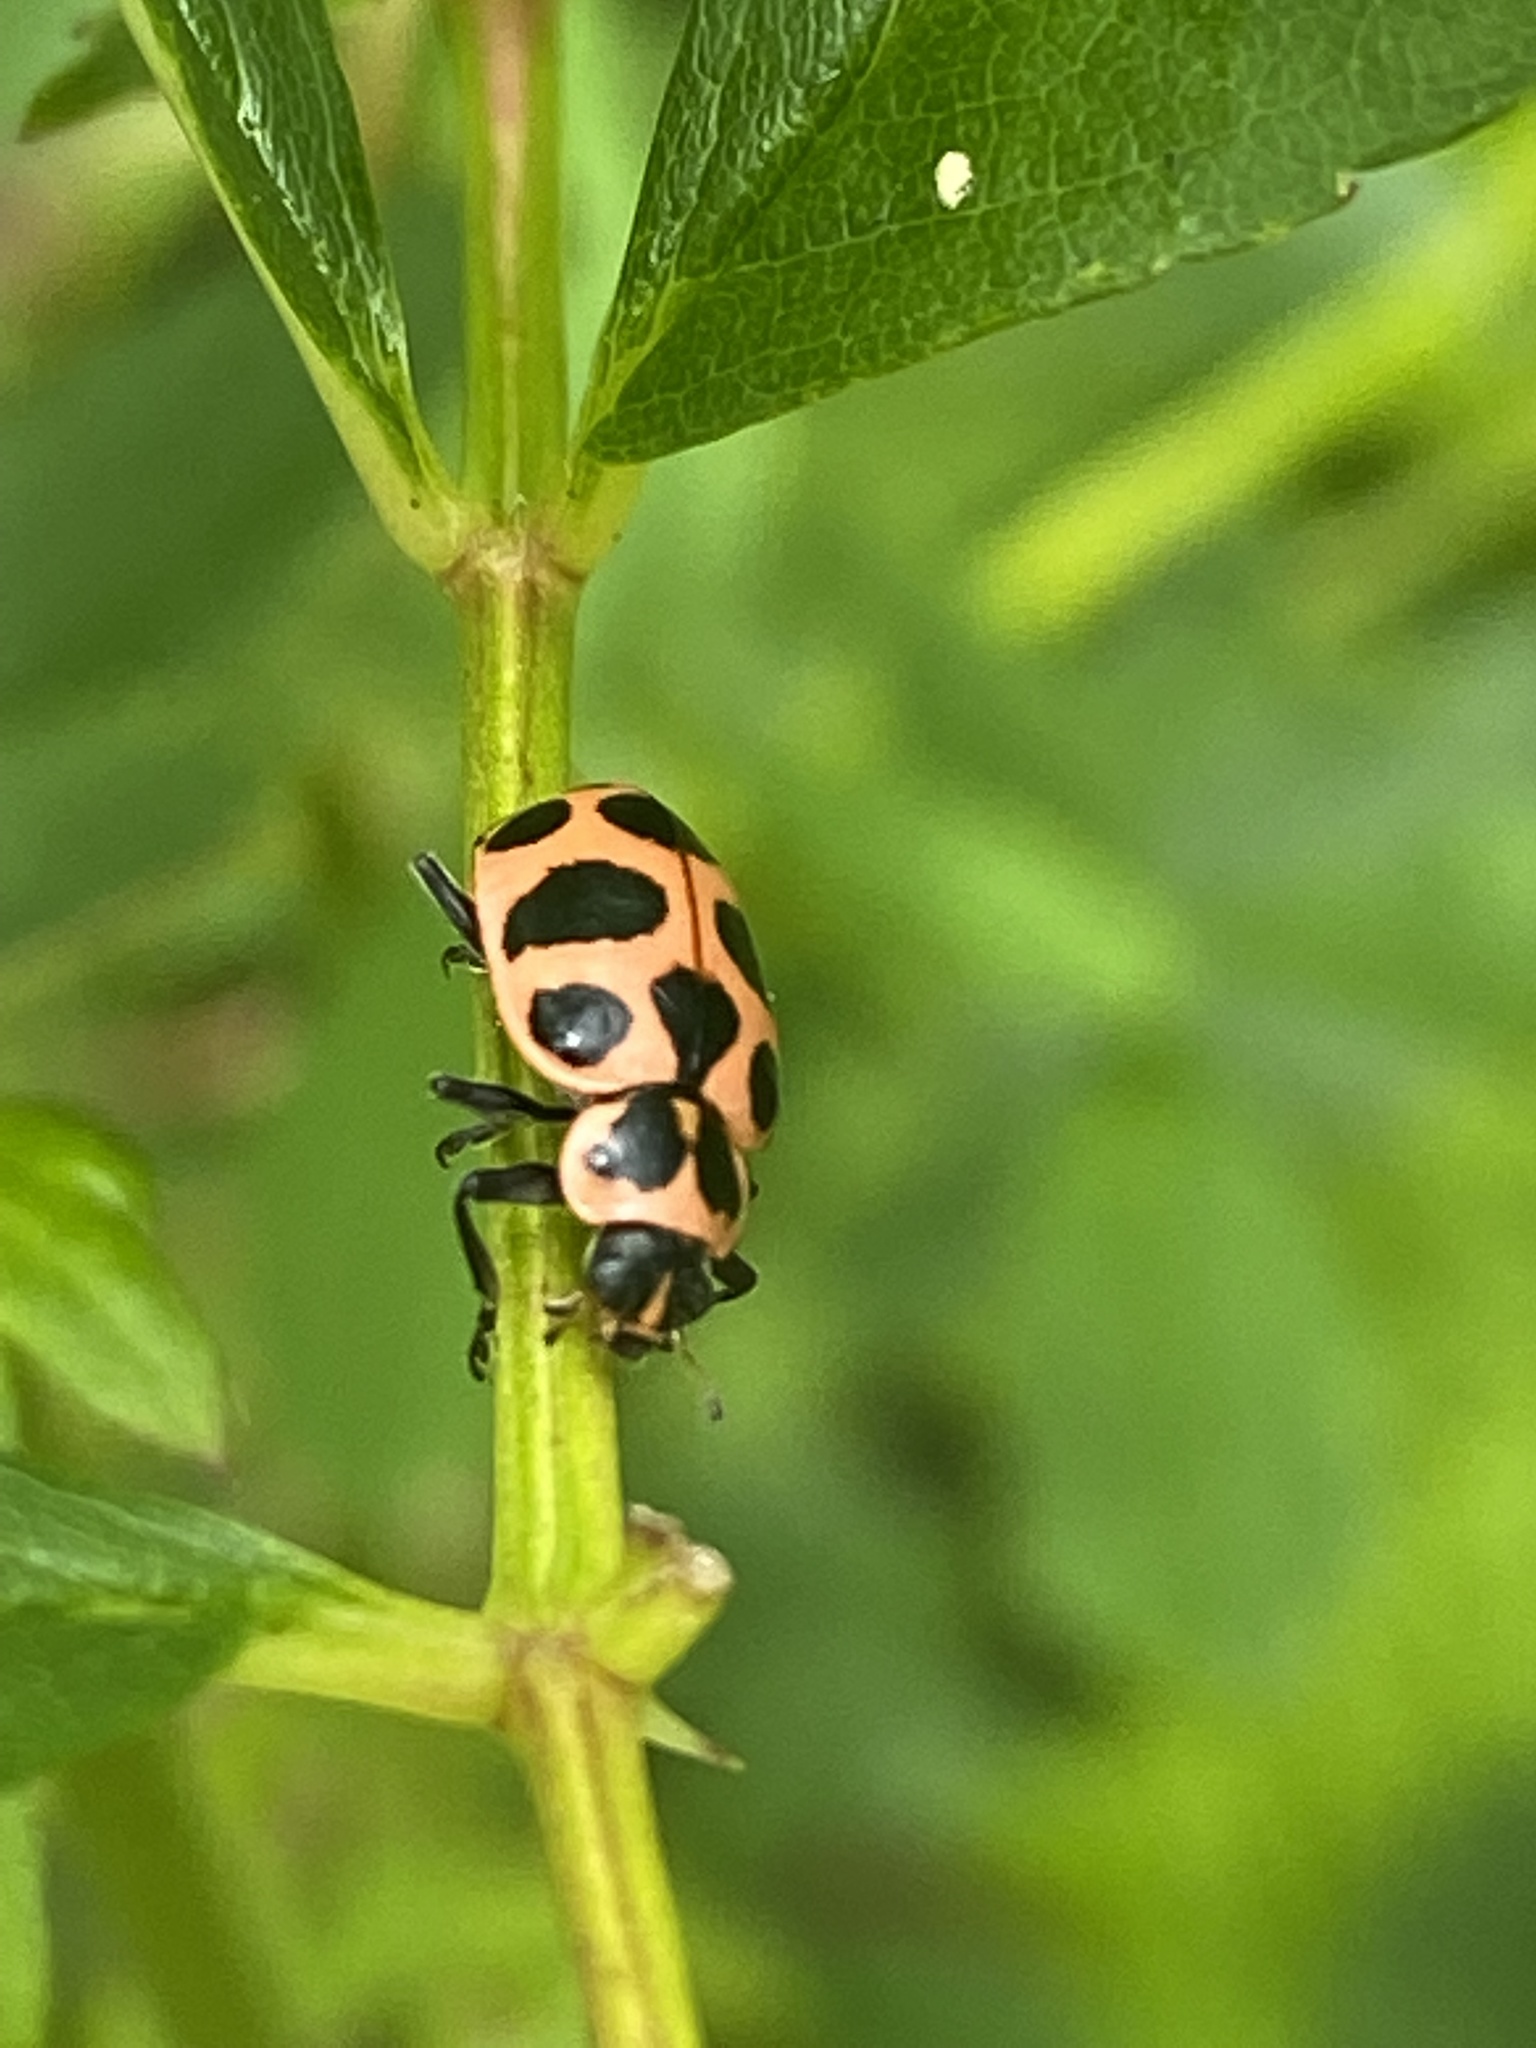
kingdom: Animalia
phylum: Arthropoda
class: Insecta
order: Coleoptera
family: Coccinellidae
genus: Coleomegilla
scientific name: Coleomegilla maculata
